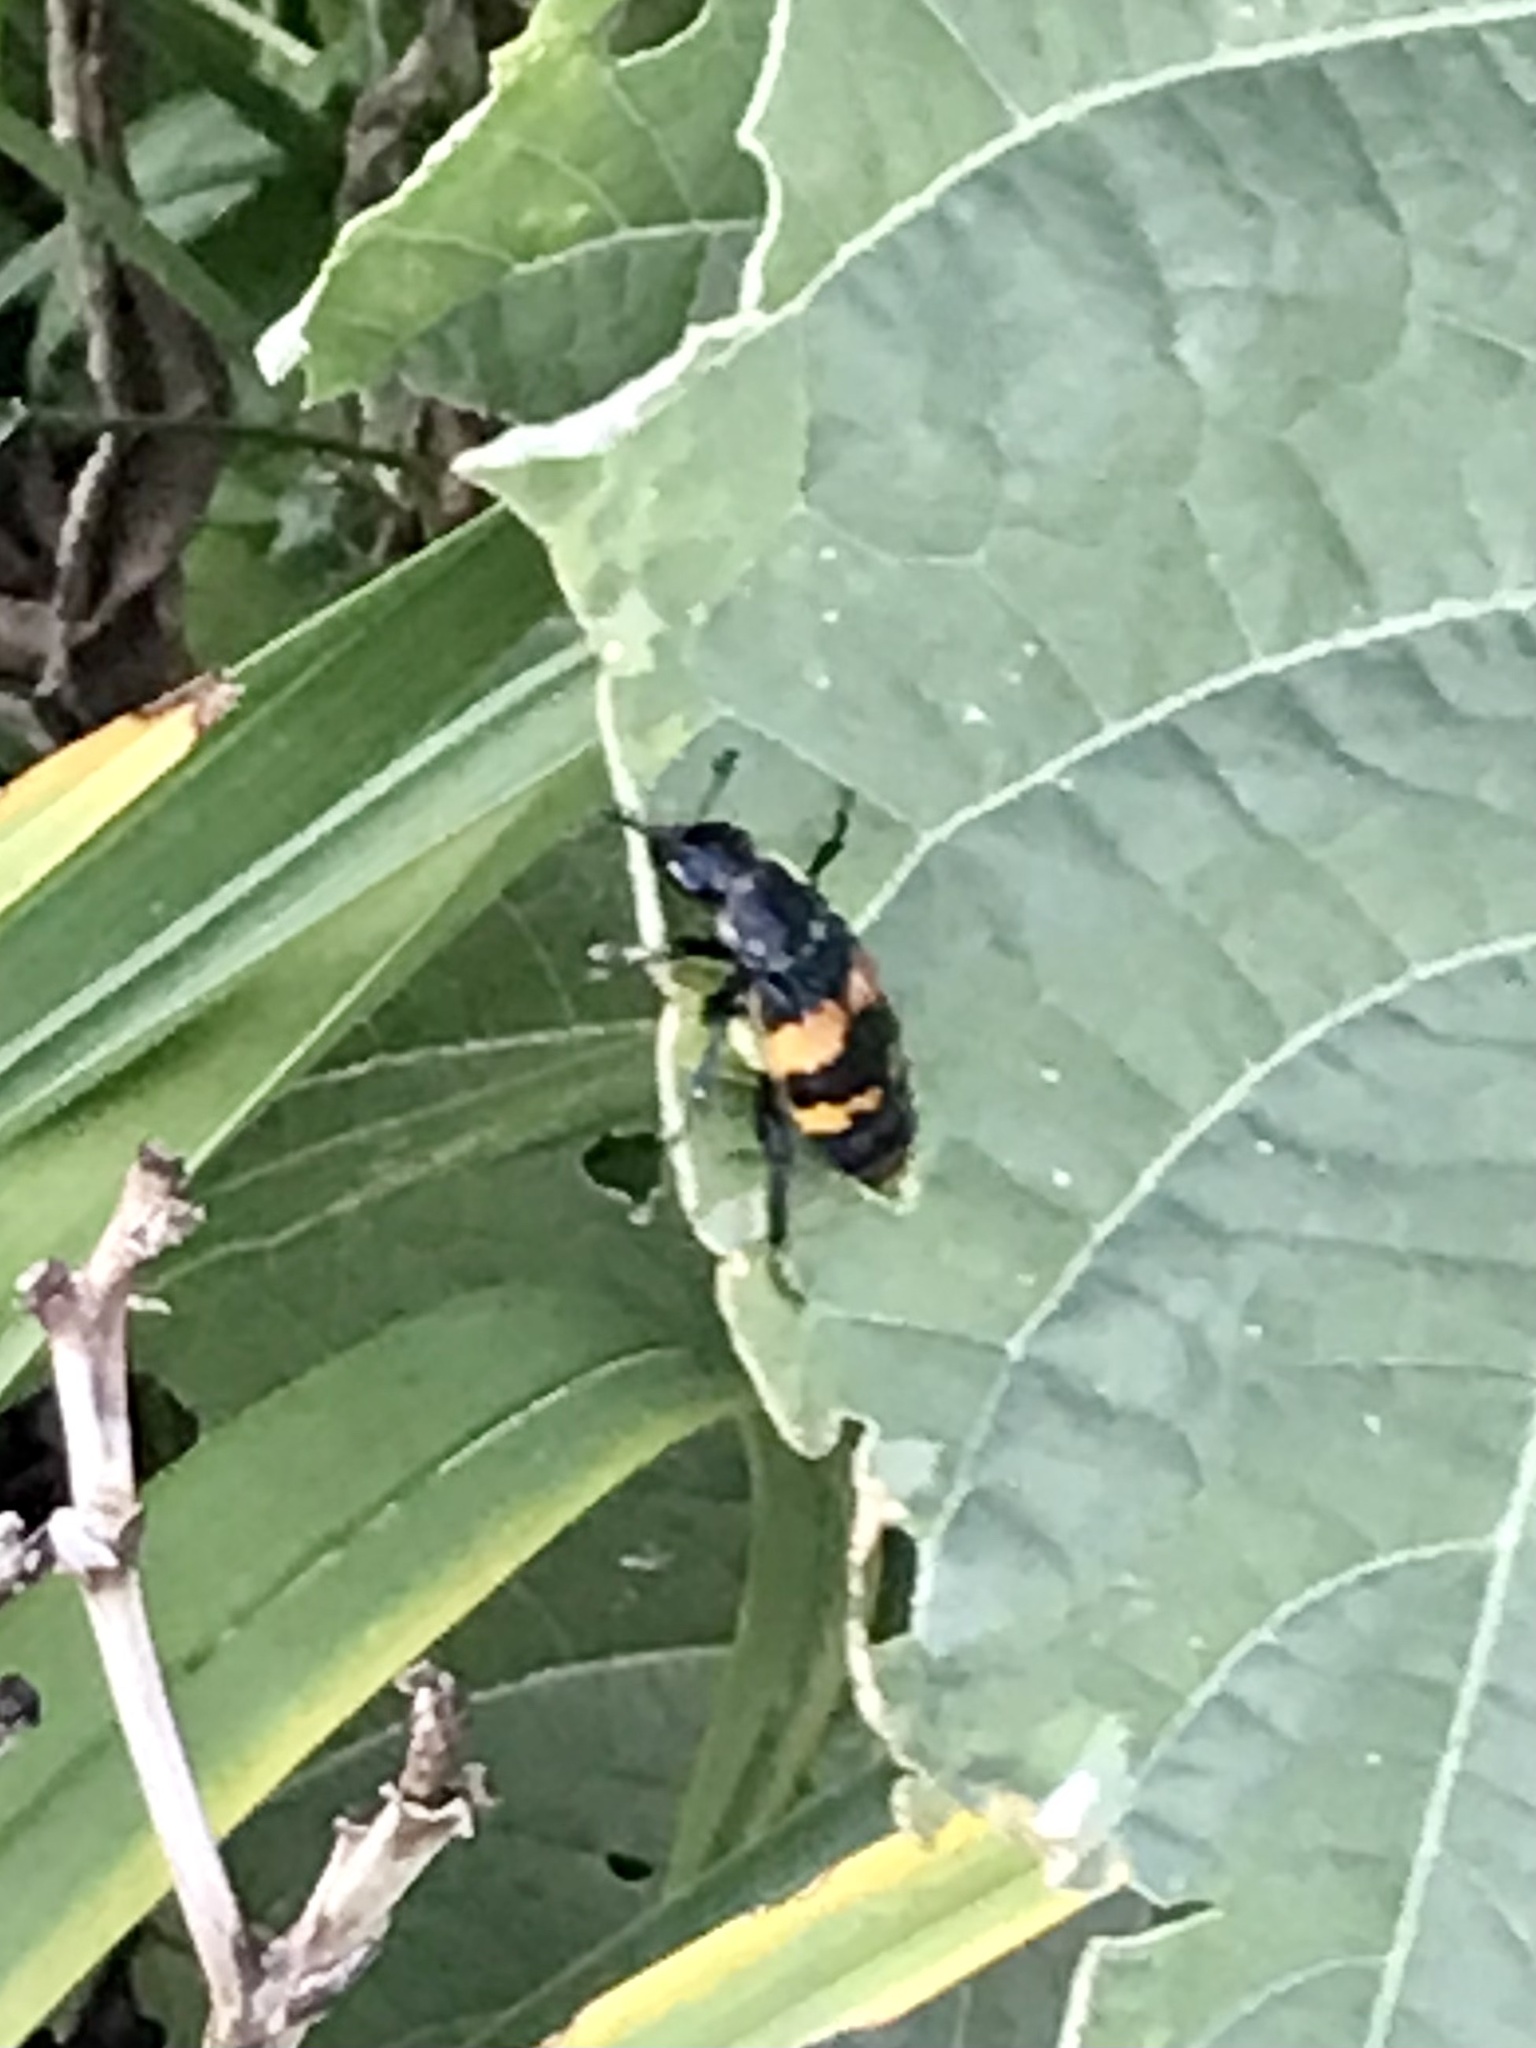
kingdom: Animalia
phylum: Arthropoda
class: Insecta
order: Coleoptera
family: Staphylinidae
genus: Nicrophorus
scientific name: Nicrophorus tomentosus
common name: Tomentose burying beetle
